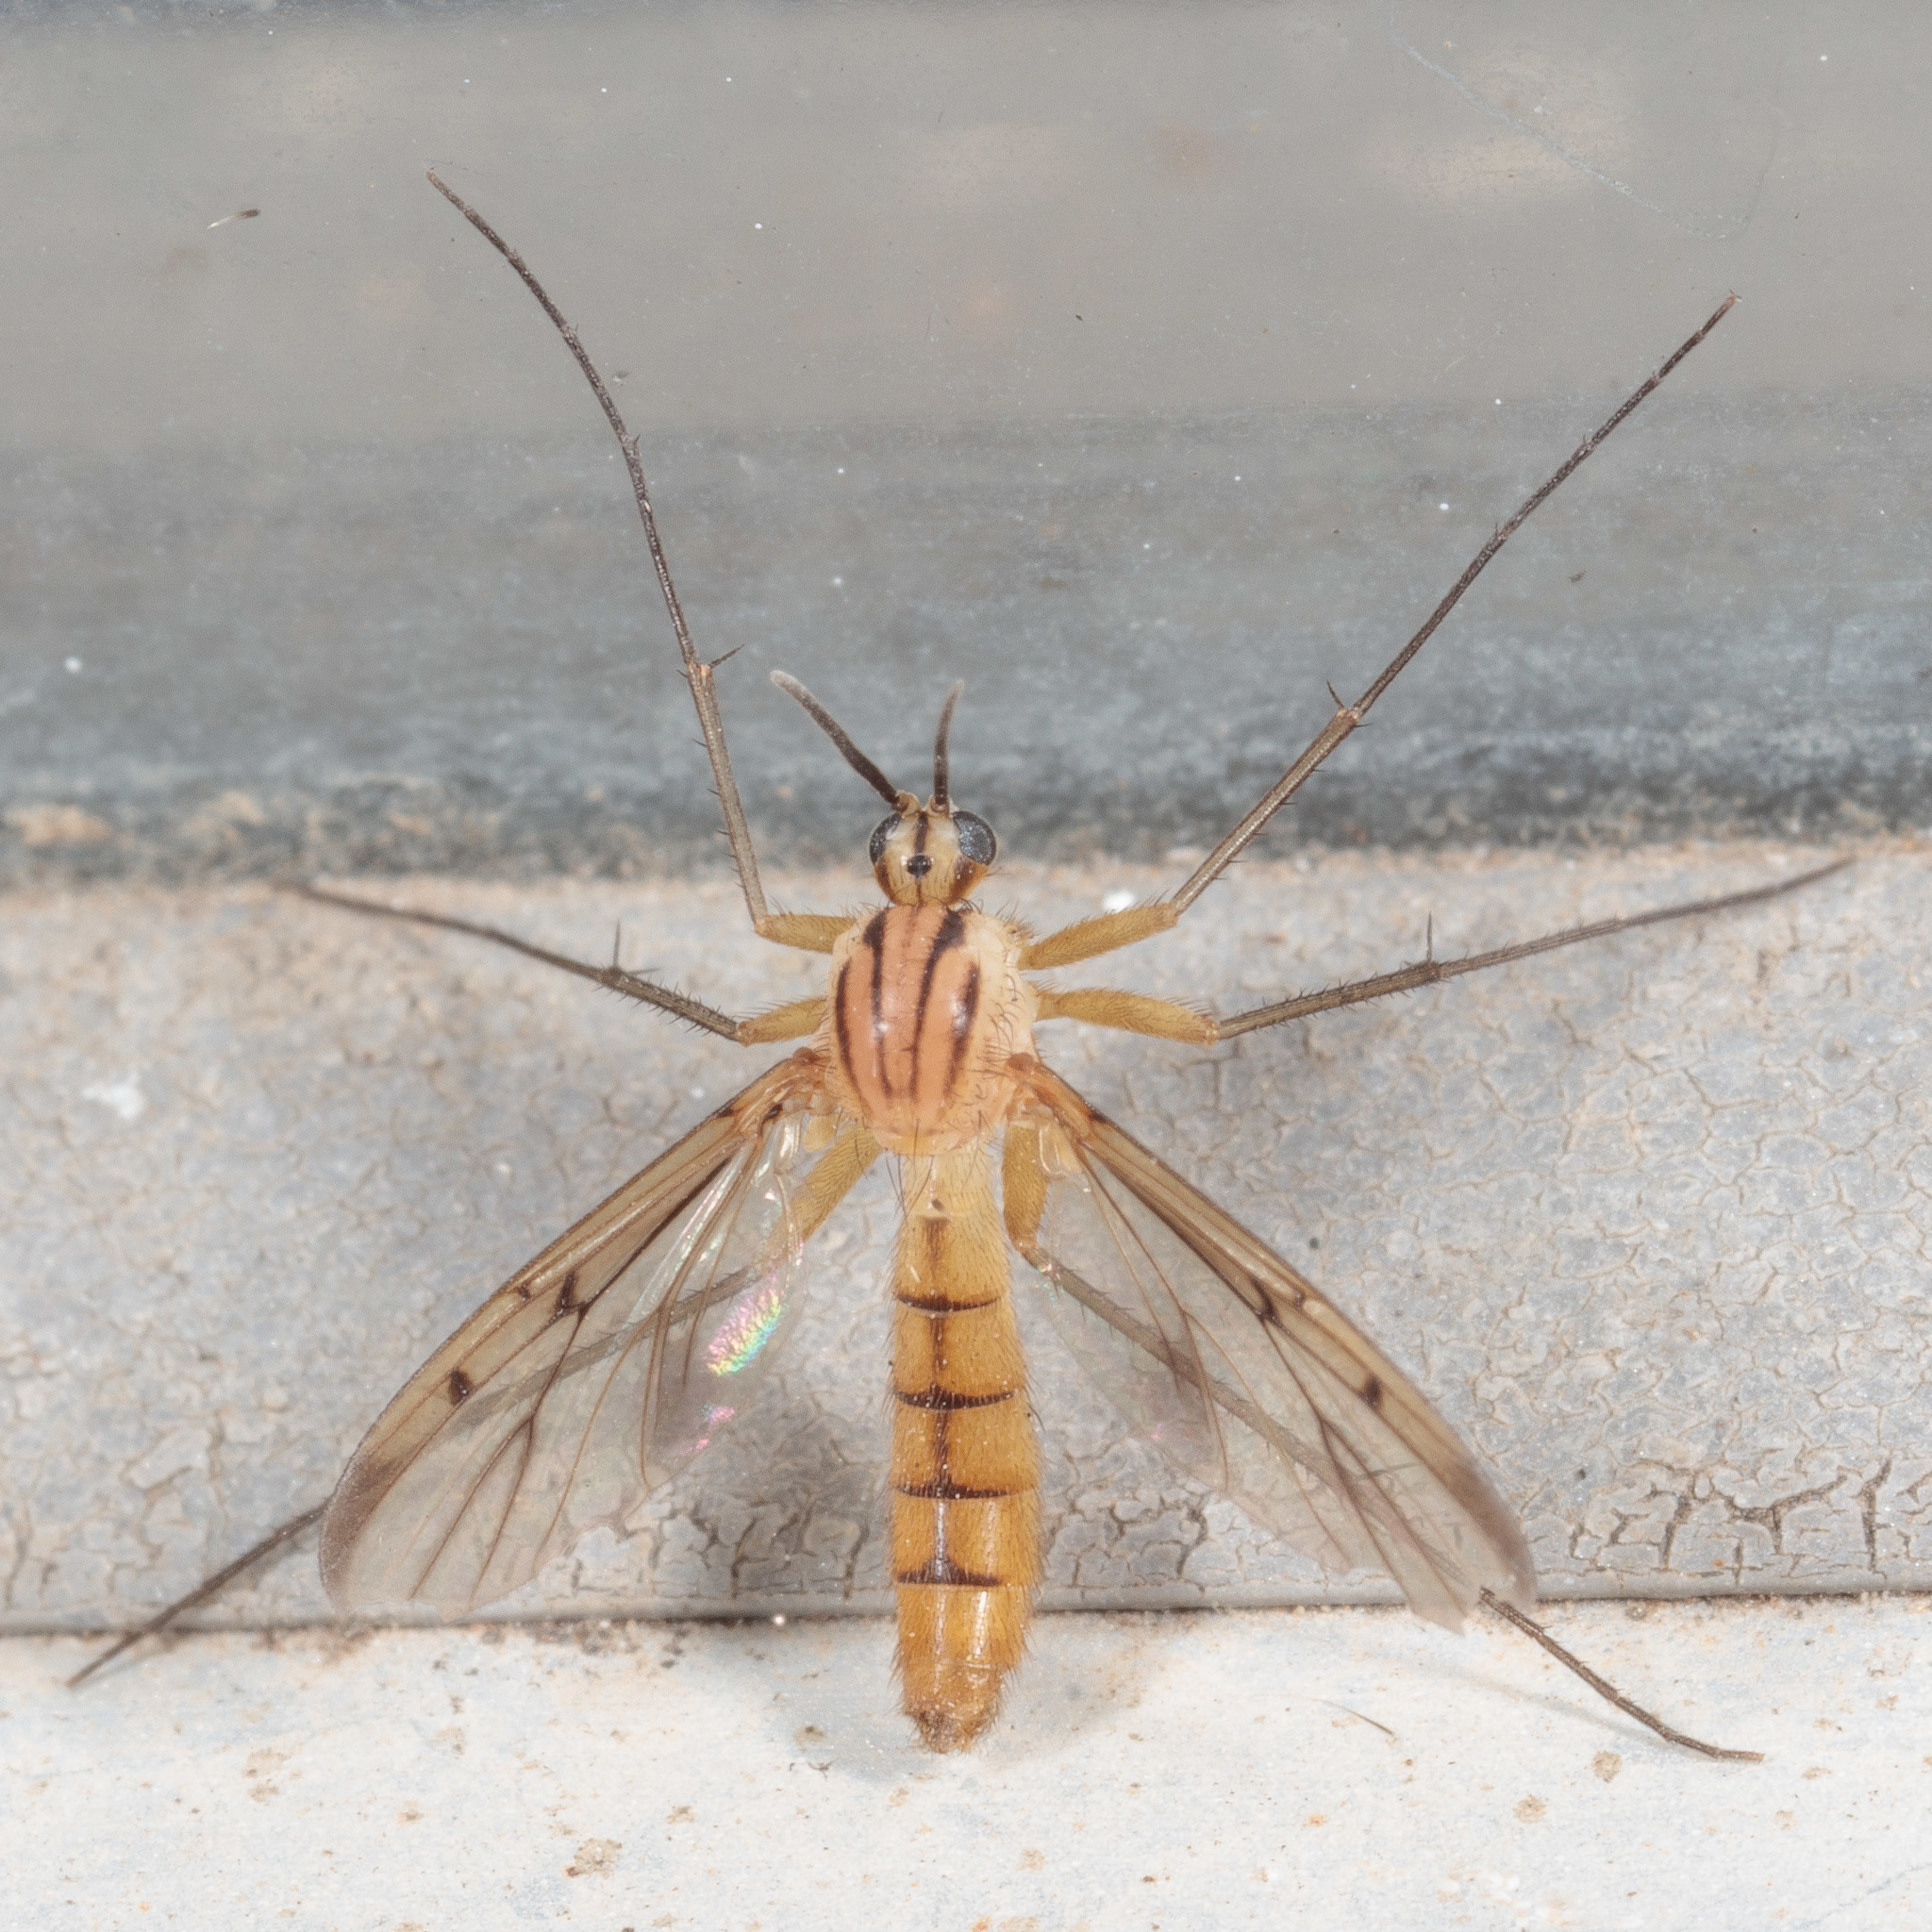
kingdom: Animalia
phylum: Arthropoda
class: Insecta
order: Diptera
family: Mycetophilidae
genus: Neoempheria
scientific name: Neoempheria balioptera
